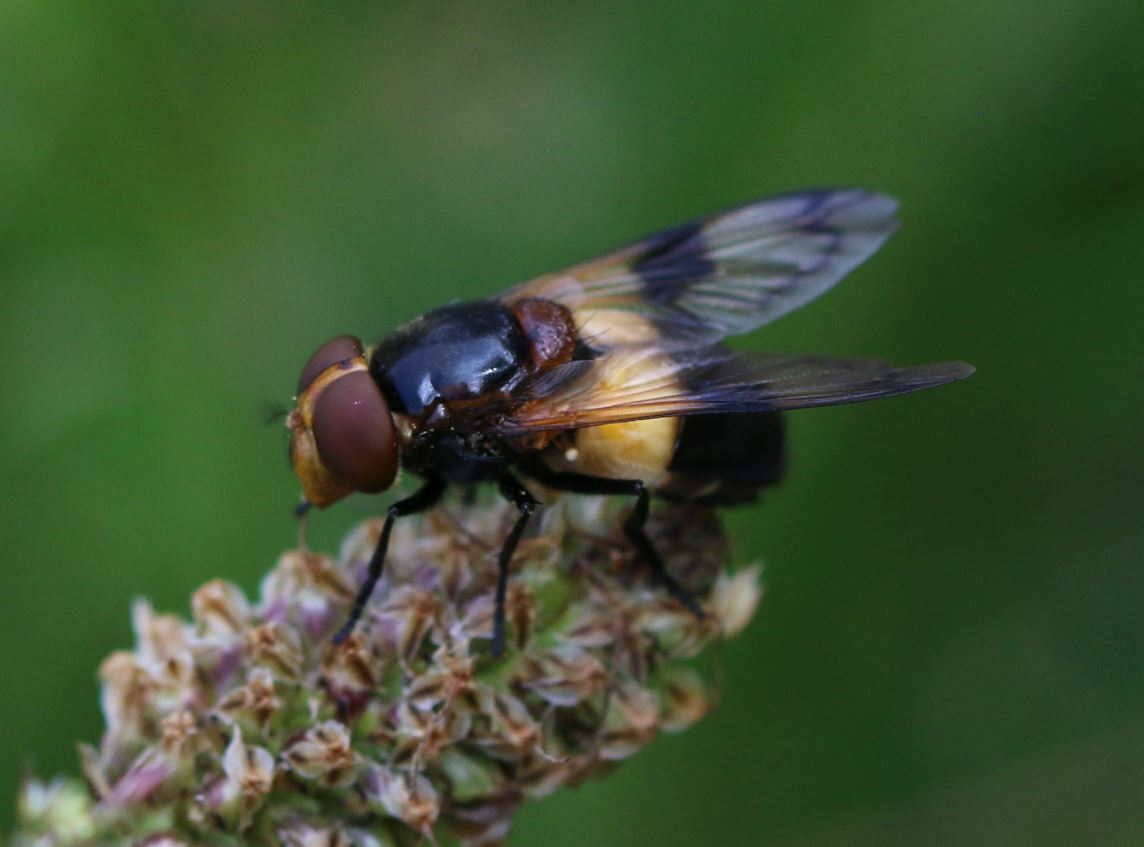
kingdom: Animalia
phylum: Arthropoda
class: Insecta
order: Diptera
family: Syrphidae
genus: Volucella
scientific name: Volucella pellucens
